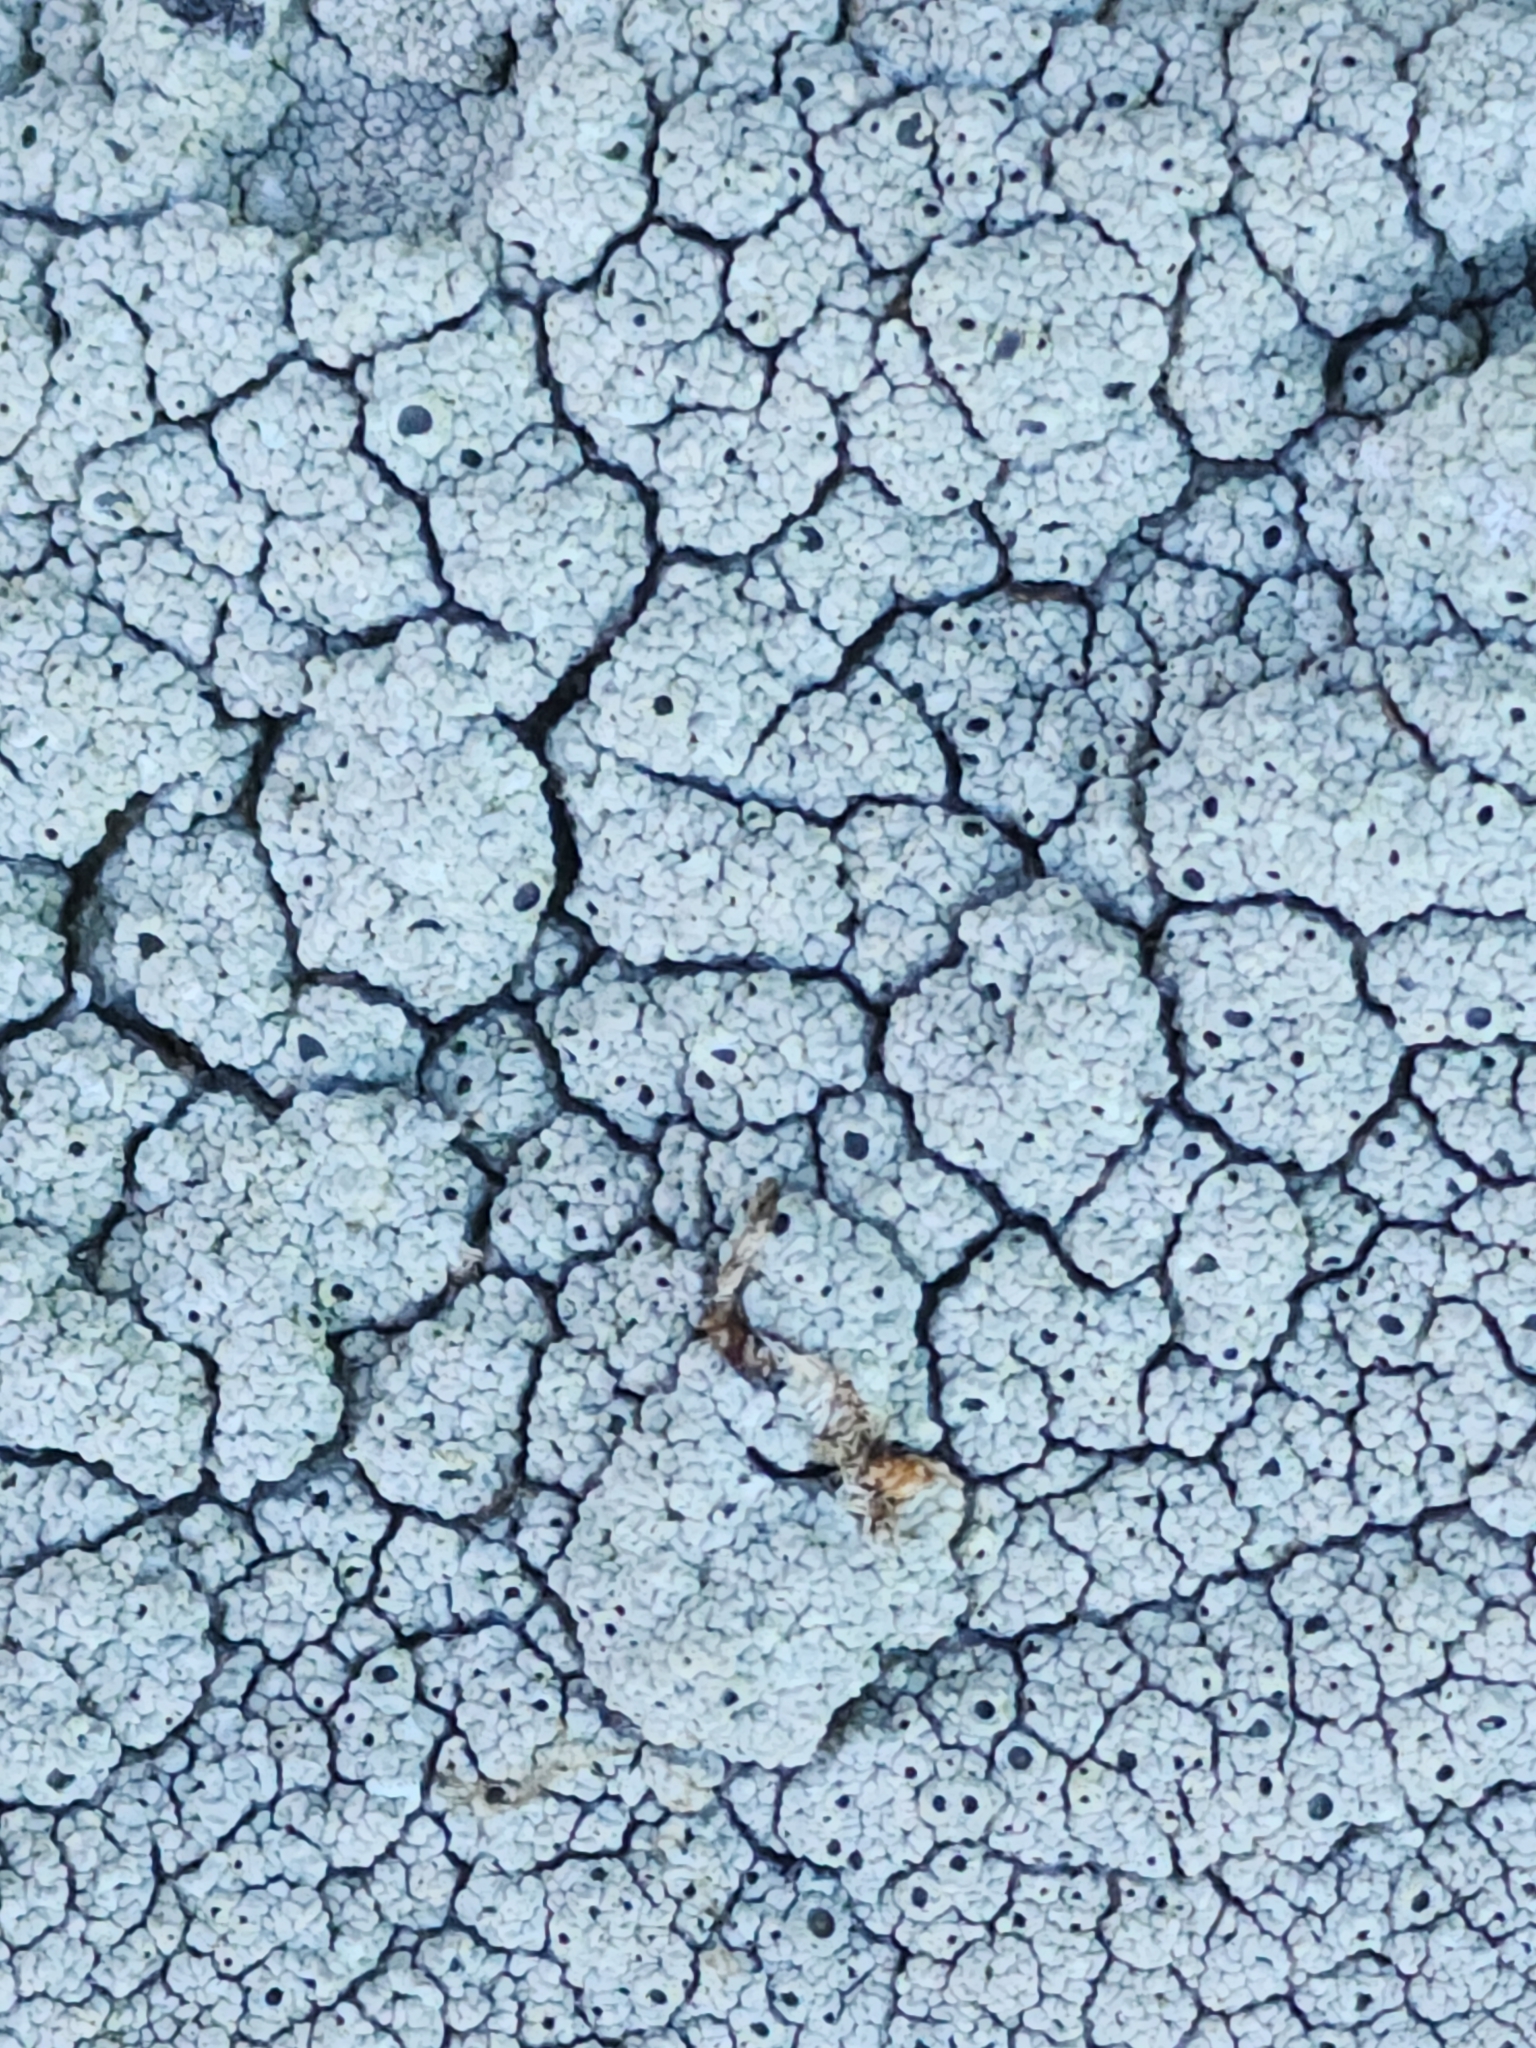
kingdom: Fungi
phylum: Ascomycota
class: Lecanoromycetes
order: Ostropales
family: Graphidaceae
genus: Diploschistes
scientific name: Diploschistes scruposus
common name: Crater lichen
